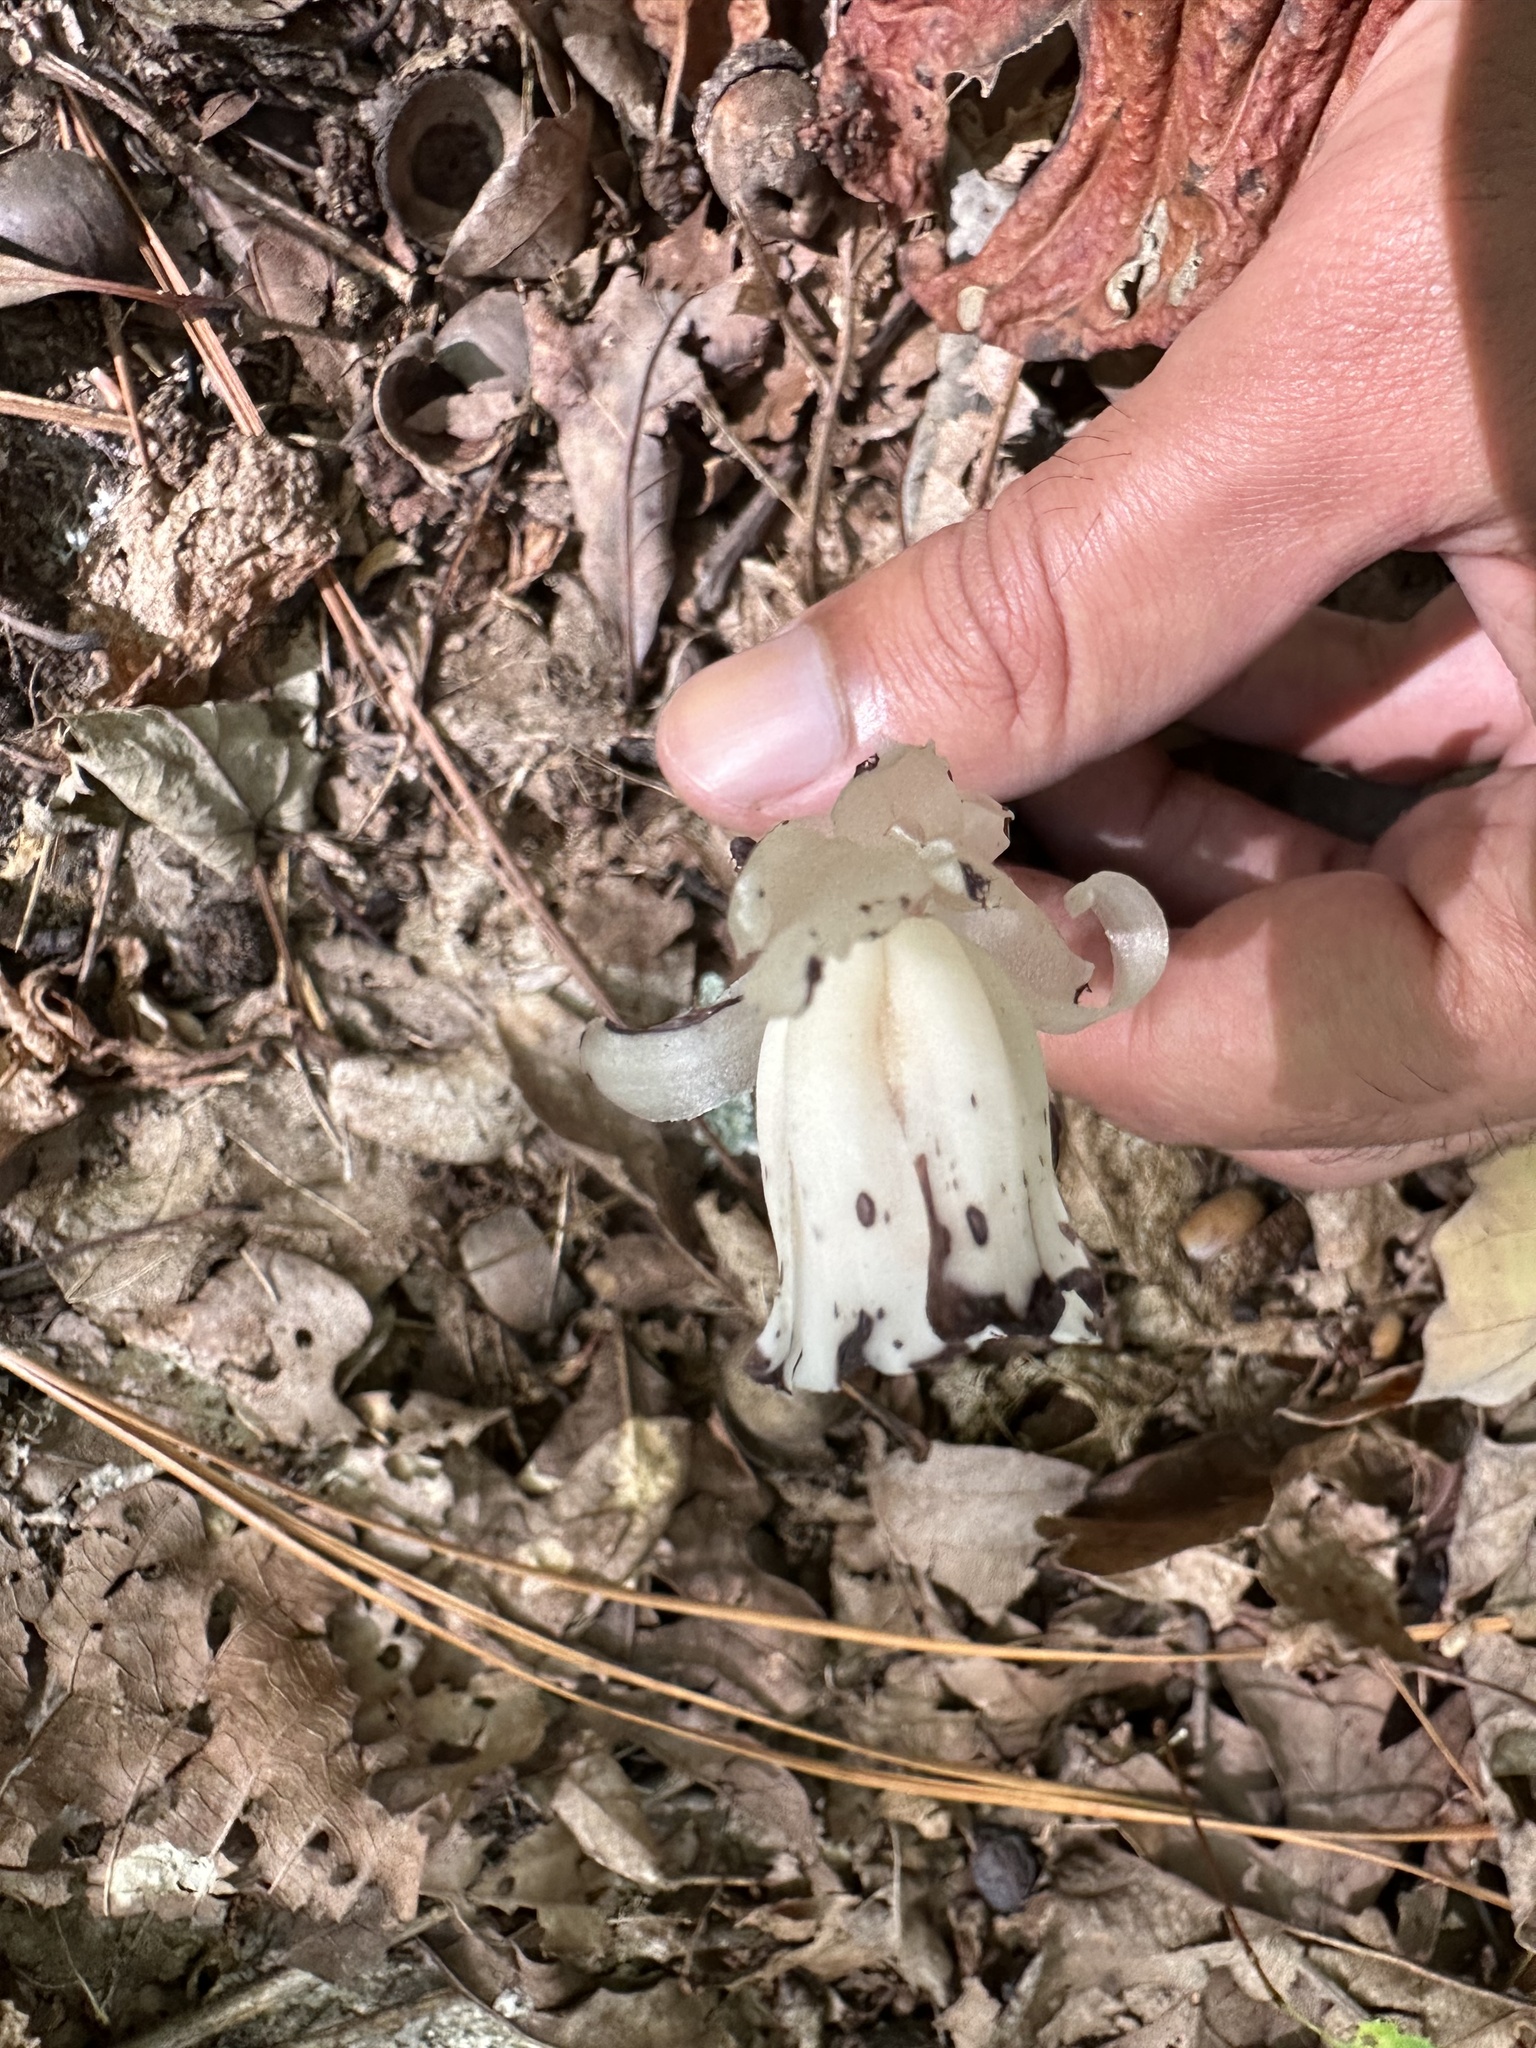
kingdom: Plantae
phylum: Tracheophyta
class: Magnoliopsida
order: Ericales
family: Ericaceae
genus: Monotropa
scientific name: Monotropa uniflora
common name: Convulsion root
